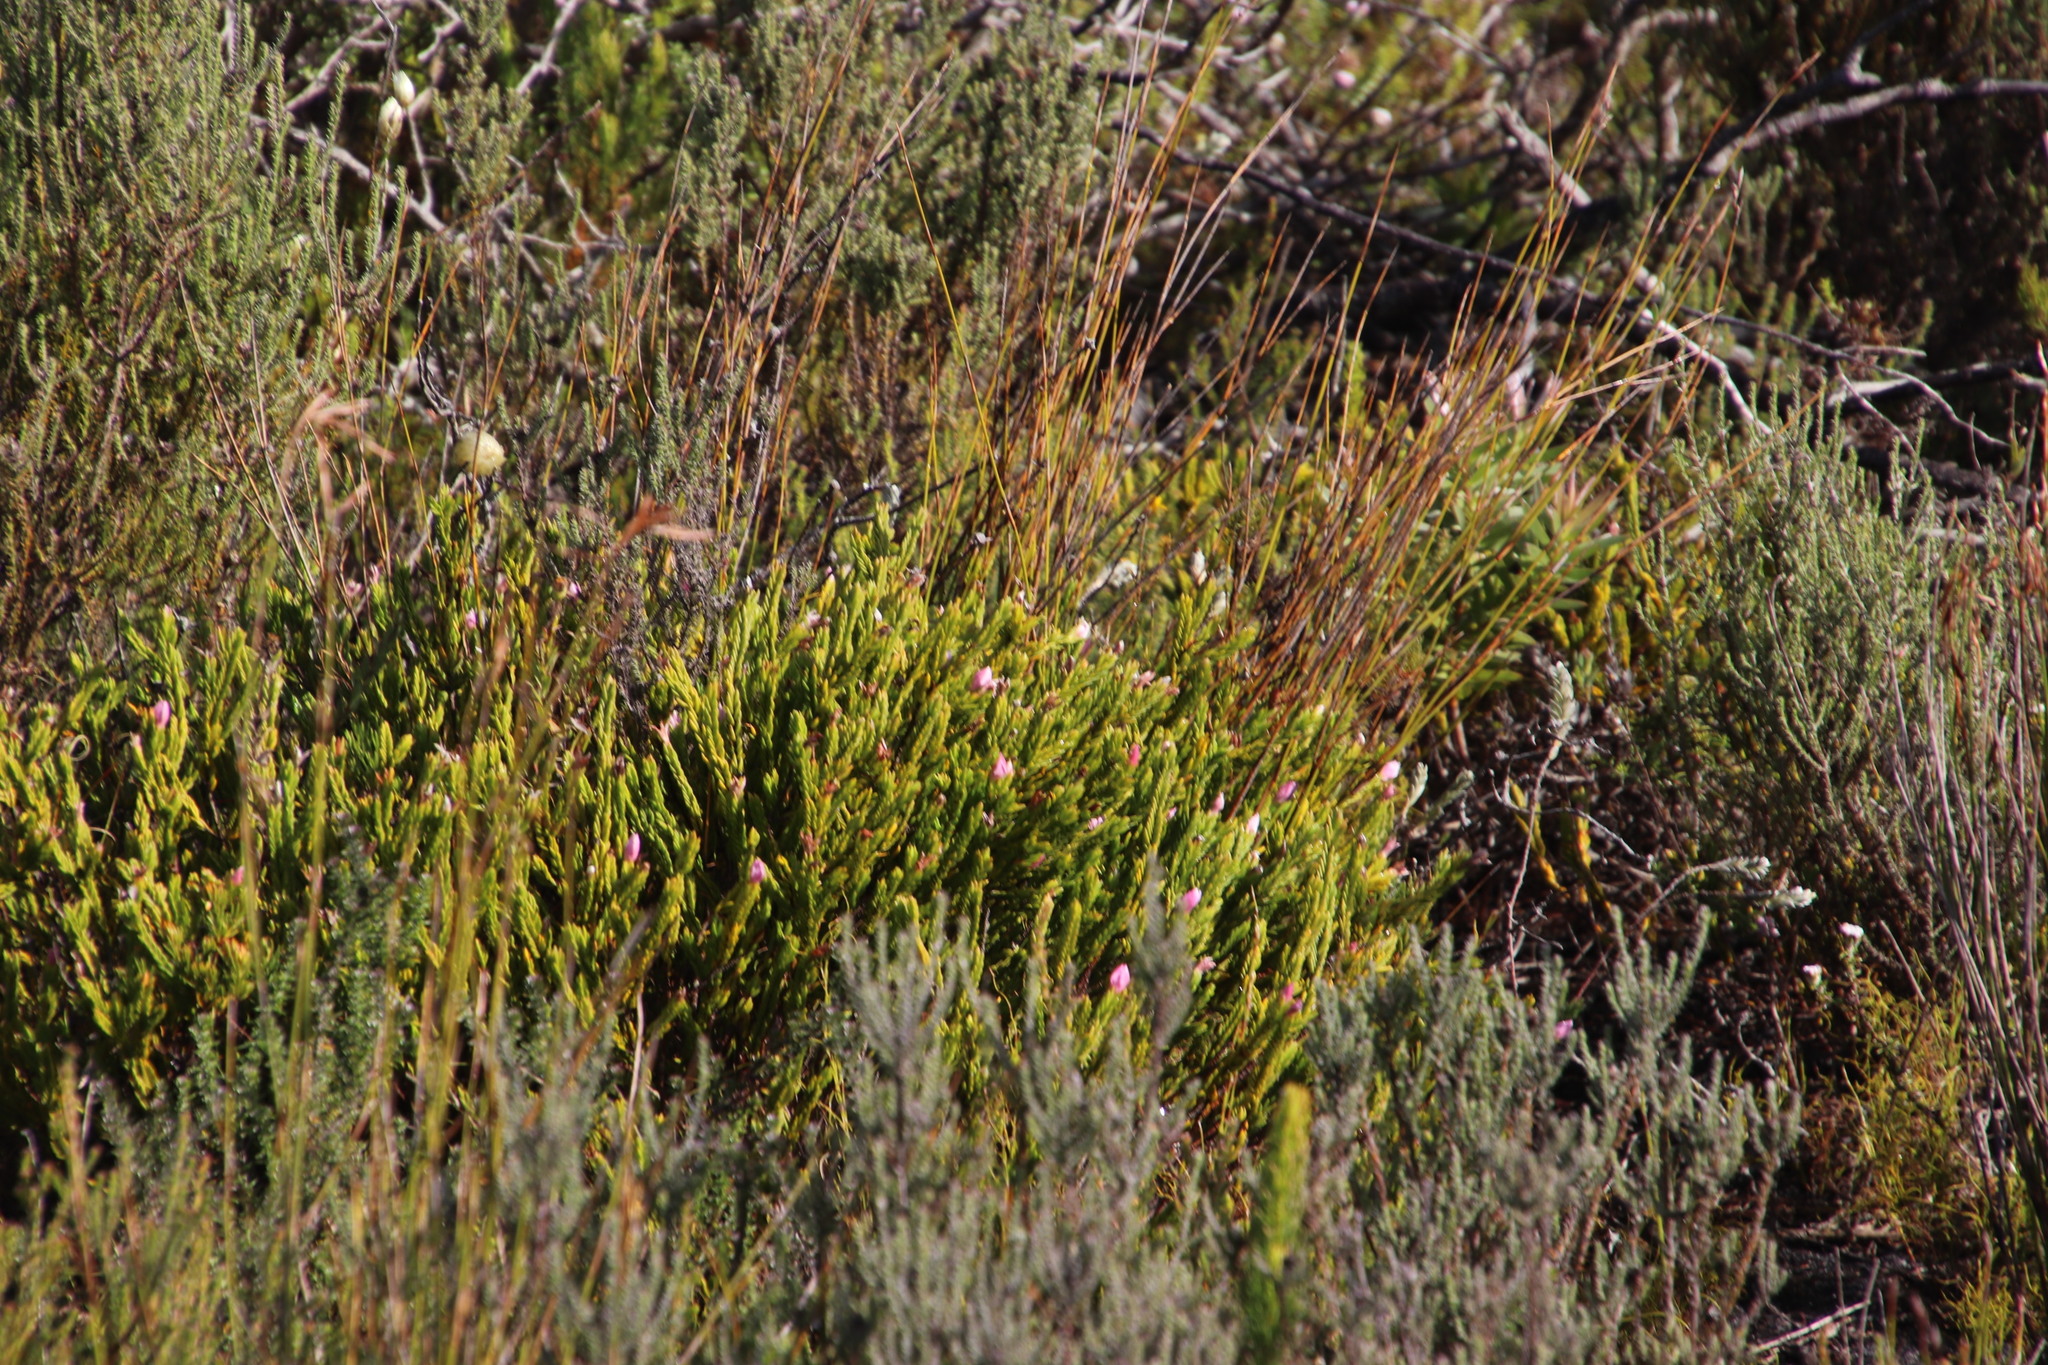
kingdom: Plantae
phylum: Tracheophyta
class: Magnoliopsida
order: Malvales
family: Thymelaeaceae
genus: Lachnaea
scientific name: Lachnaea grandiflora
